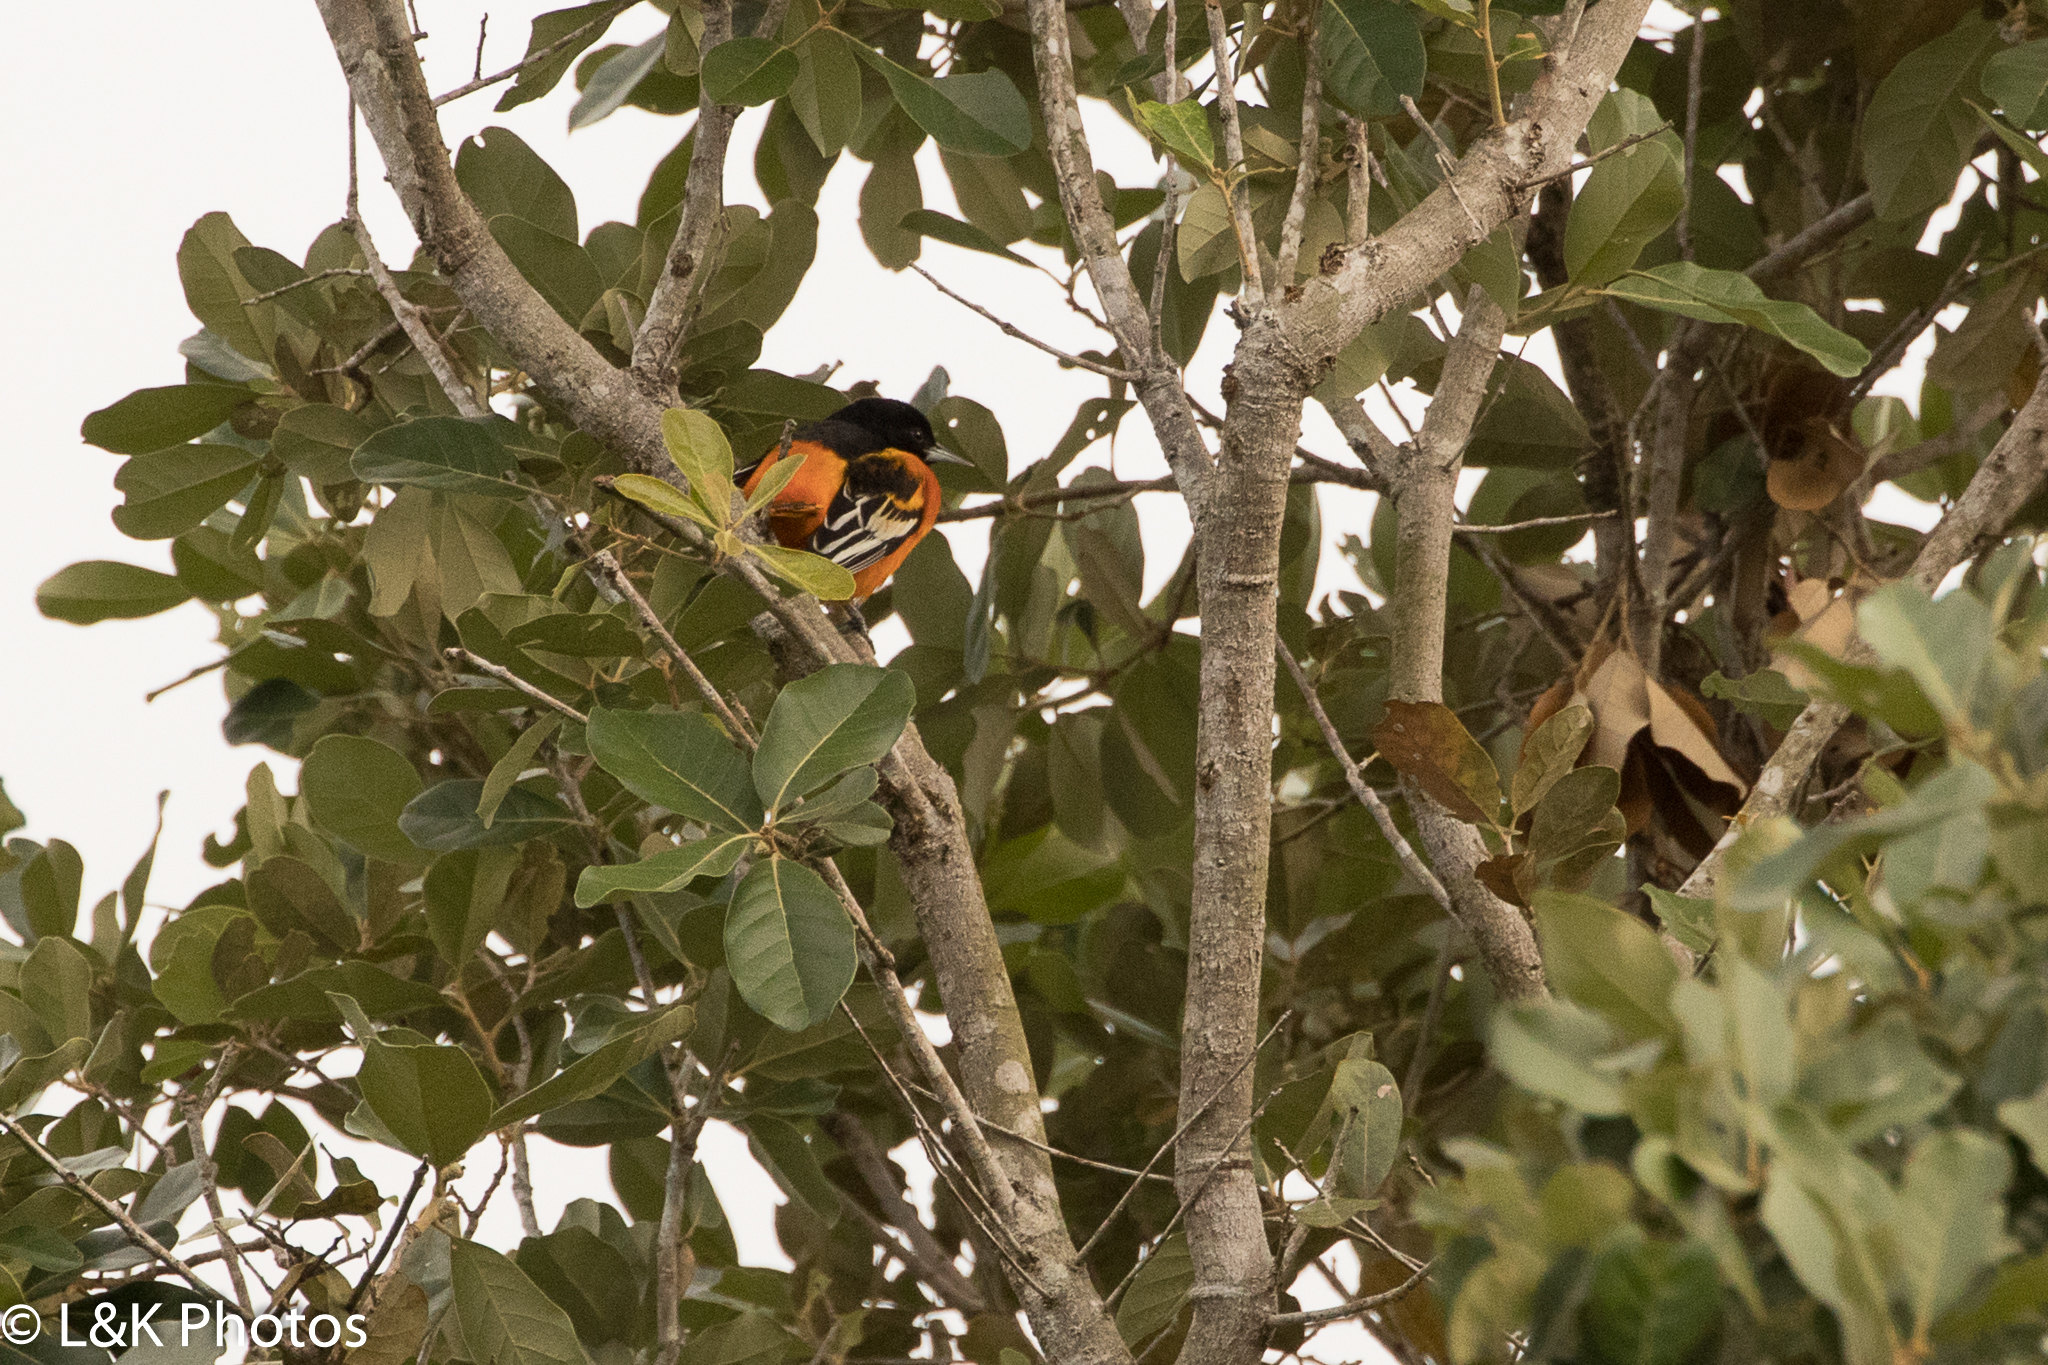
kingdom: Animalia
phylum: Chordata
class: Aves
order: Passeriformes
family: Icteridae
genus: Icterus
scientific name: Icterus galbula
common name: Baltimore oriole
